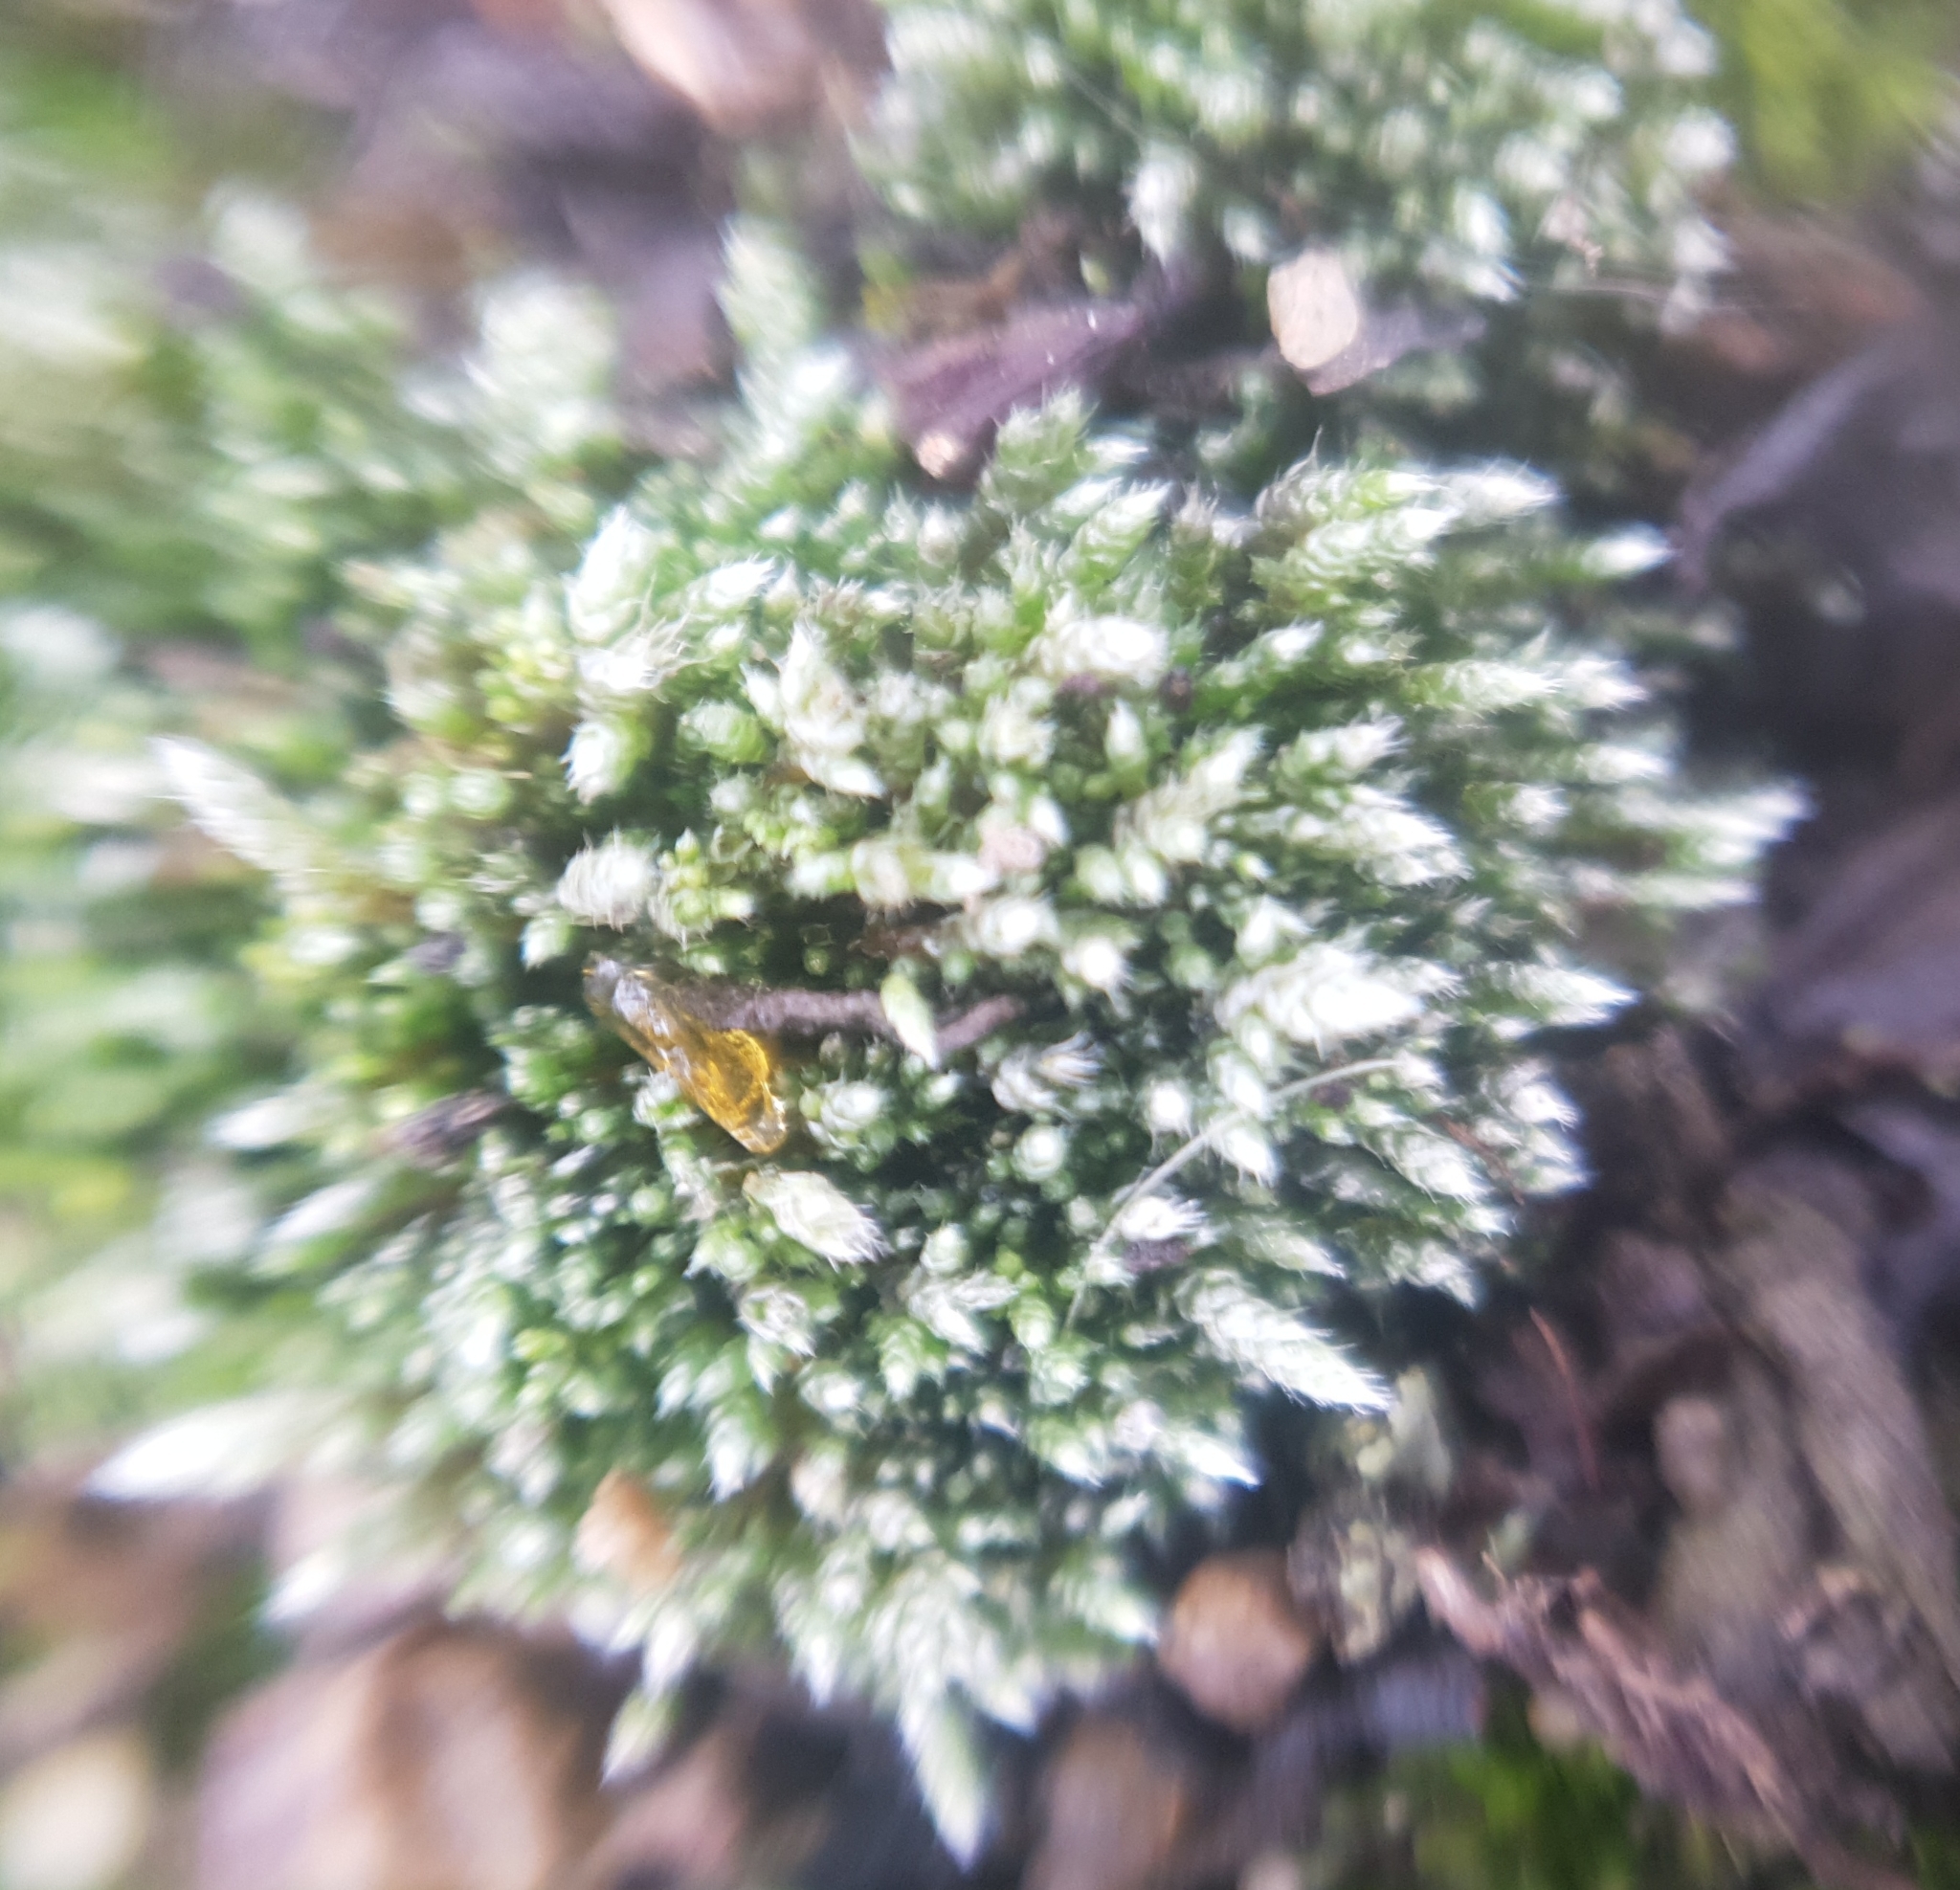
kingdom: Plantae
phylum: Bryophyta
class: Bryopsida
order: Bryales
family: Bryaceae
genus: Bryum
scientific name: Bryum argenteum
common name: Silver-moss
